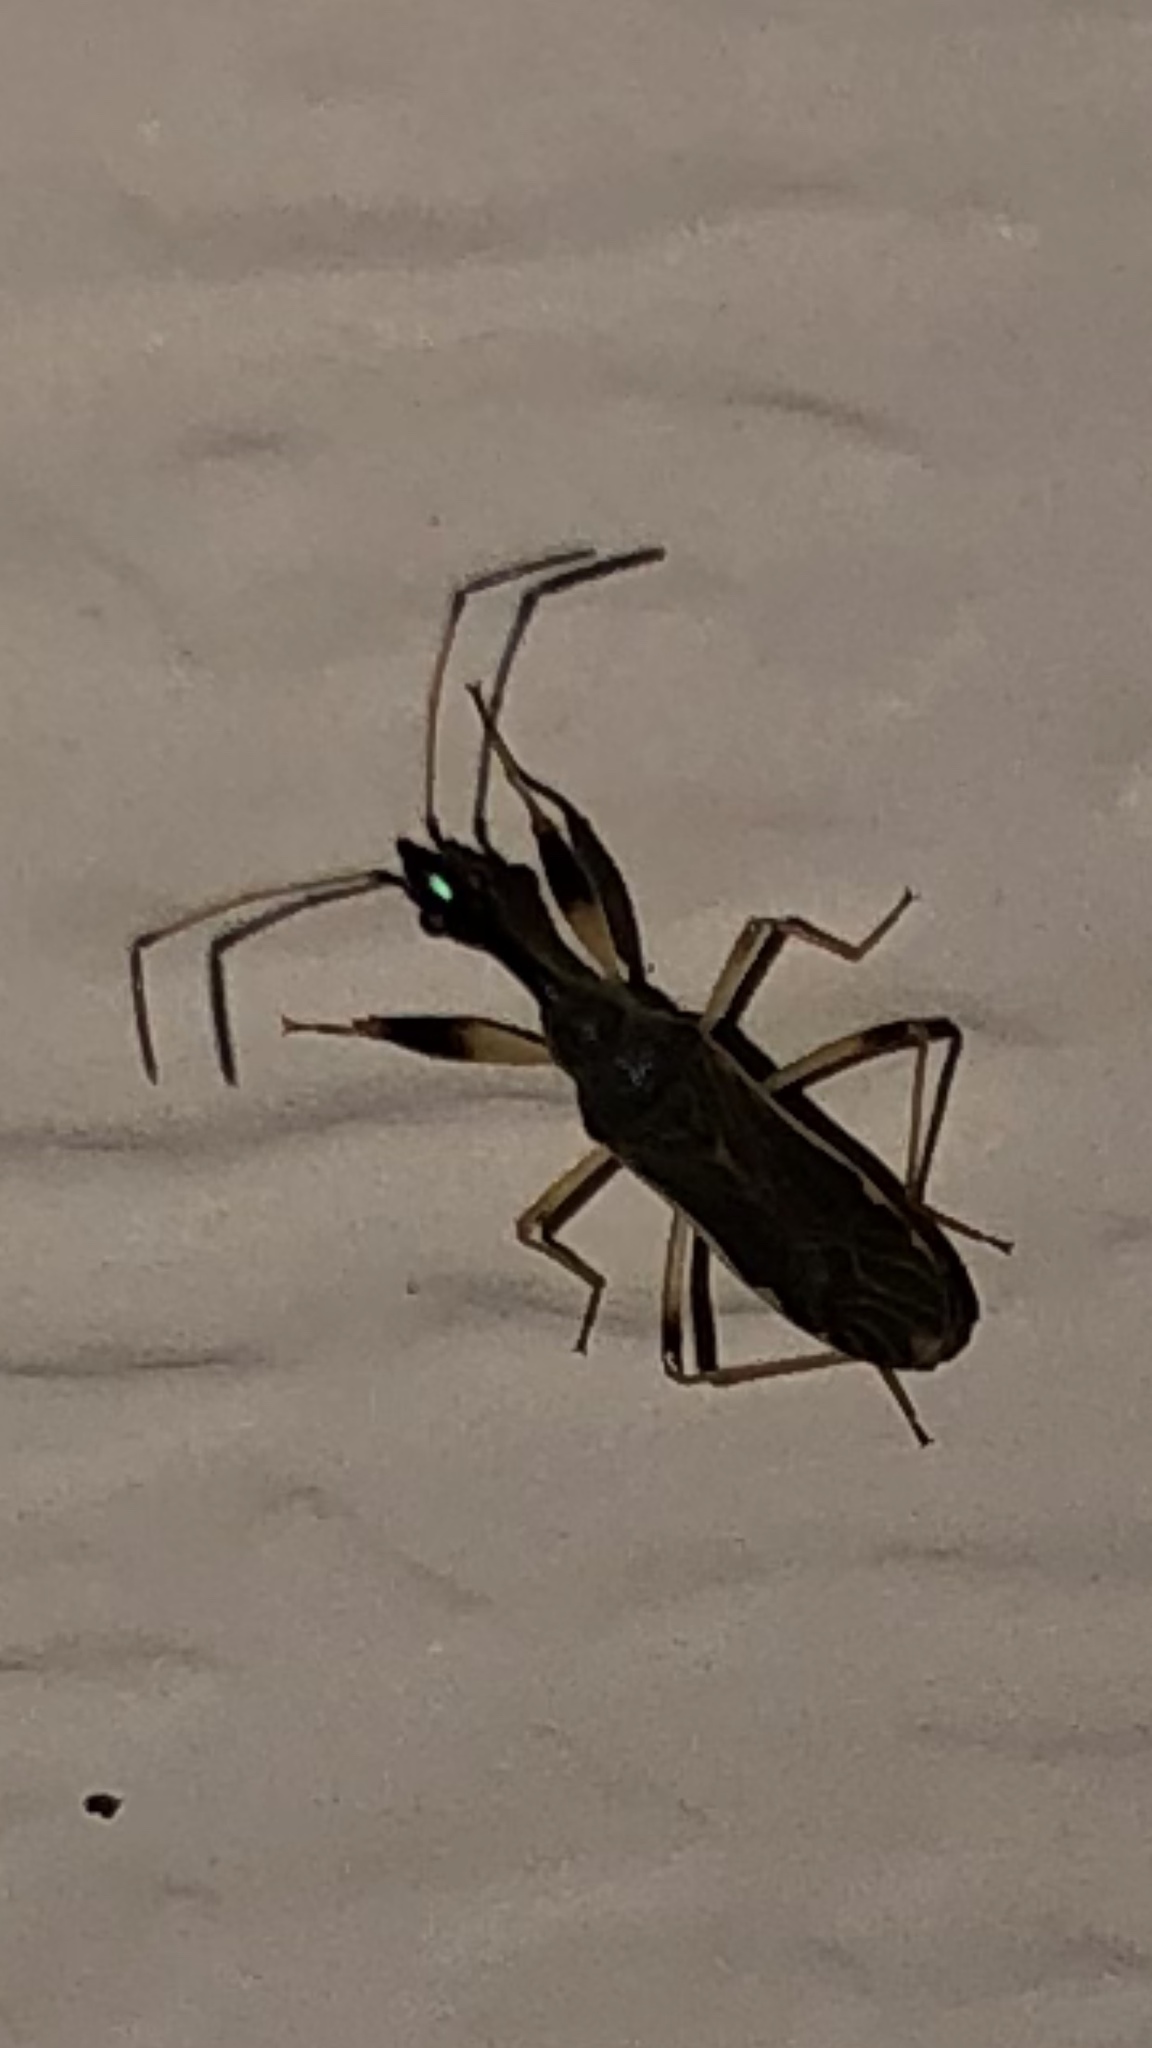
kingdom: Animalia
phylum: Arthropoda
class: Insecta
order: Hemiptera
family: Rhyparochromidae
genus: Myodocha
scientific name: Myodocha serripes
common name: Long-necked seed bug
